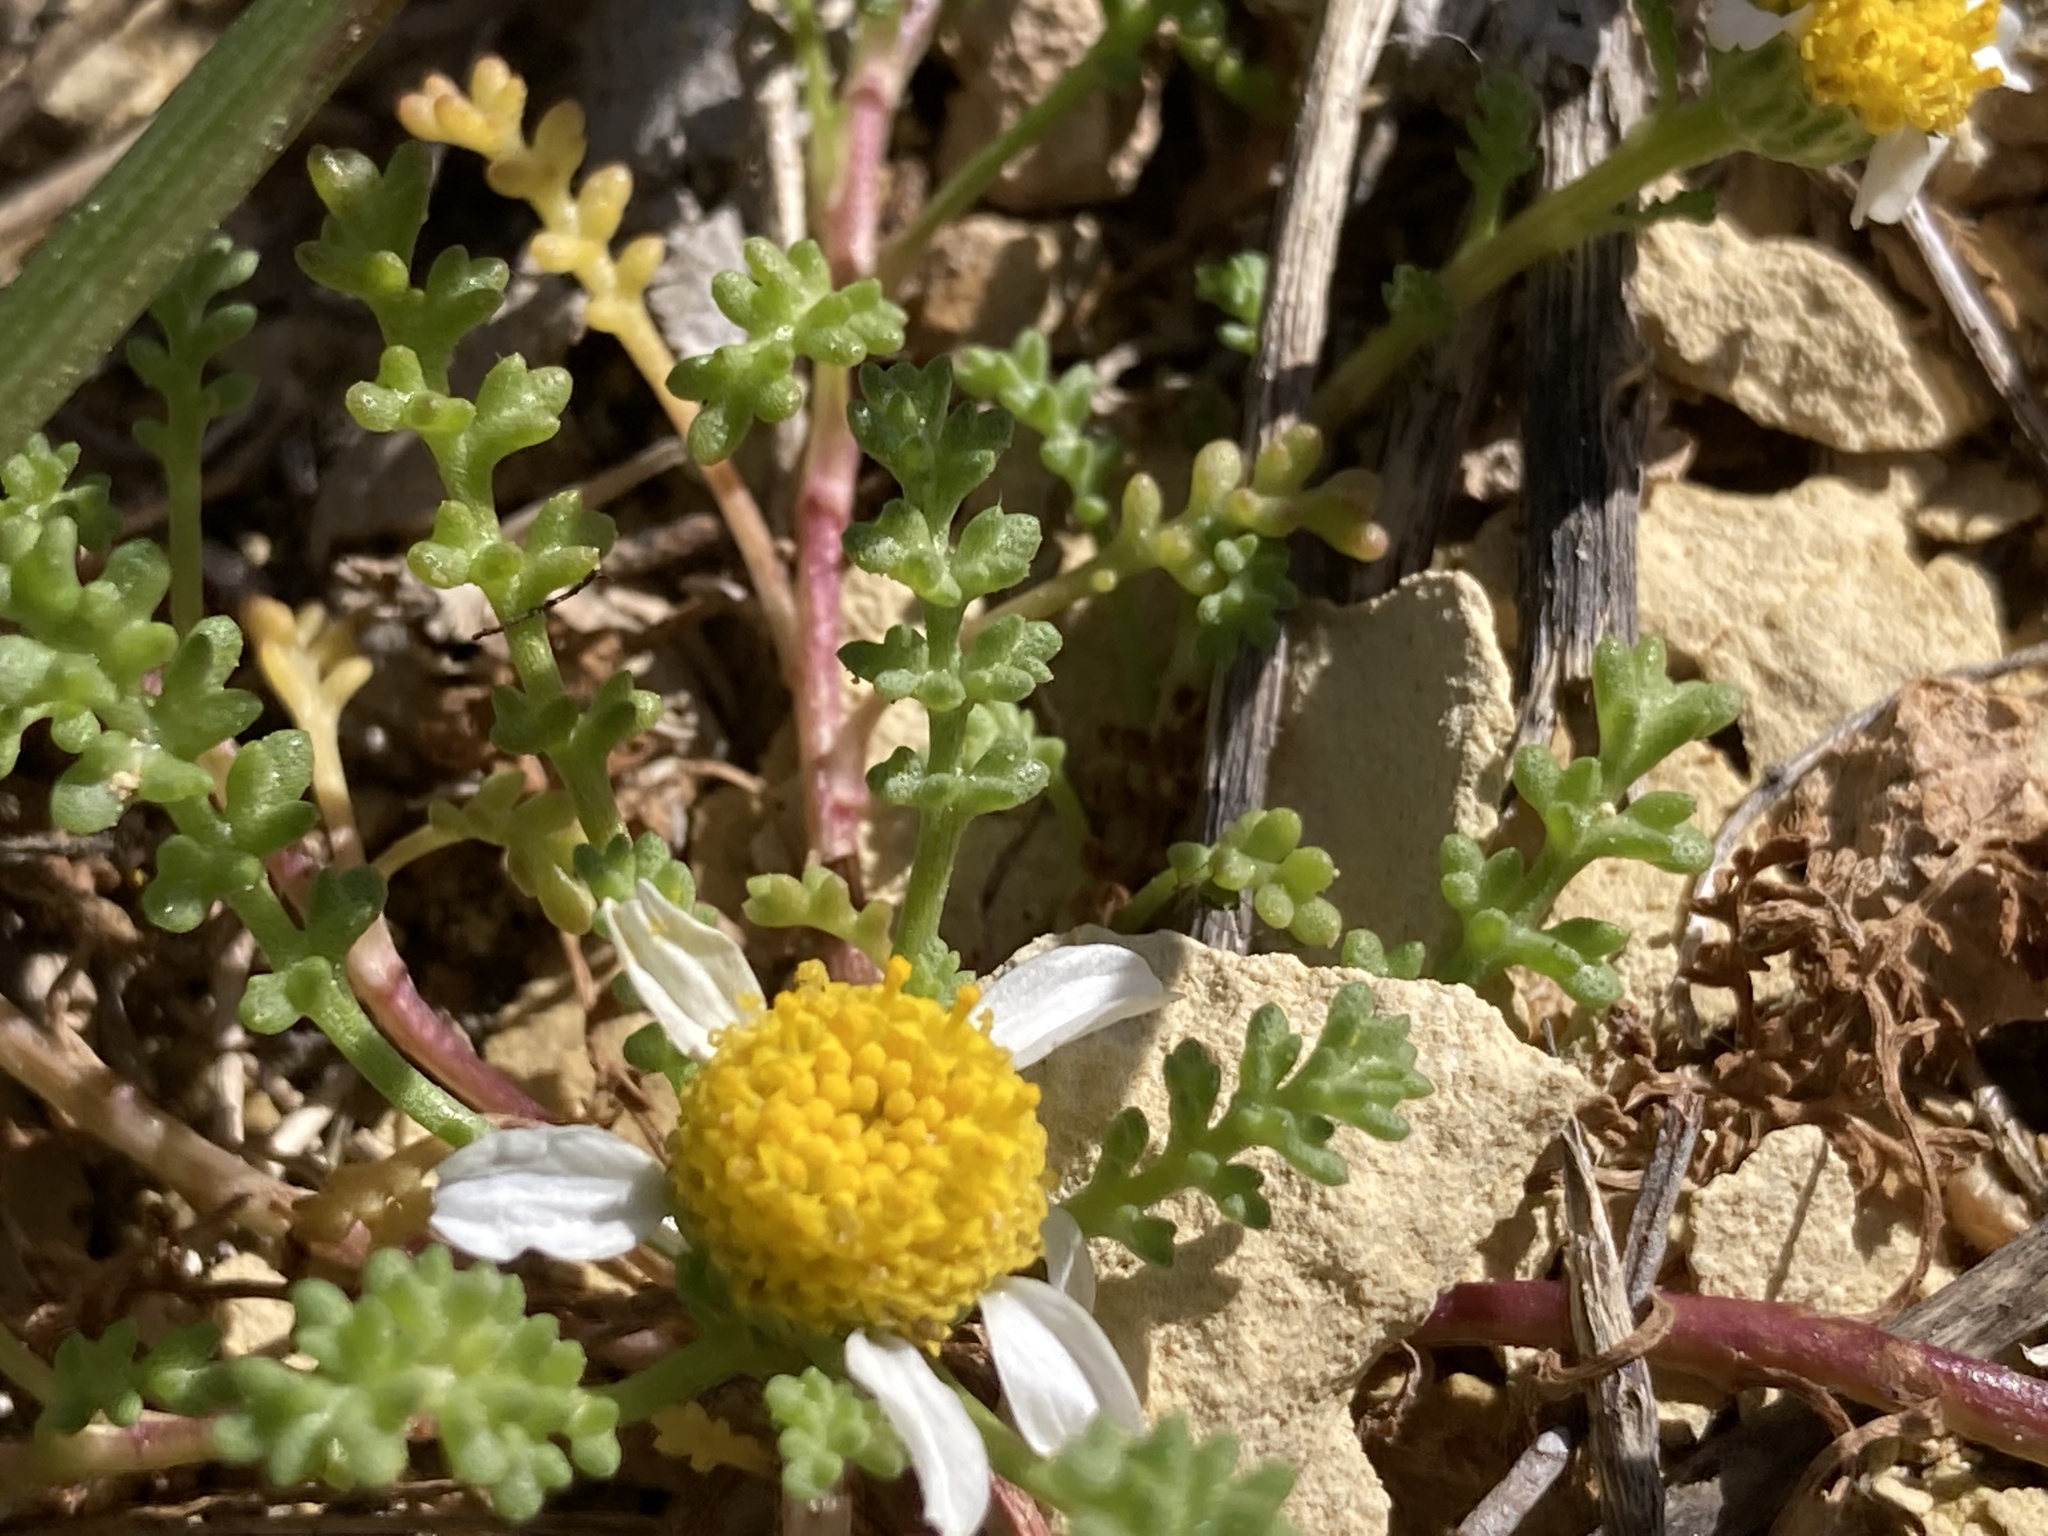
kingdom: Plantae
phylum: Tracheophyta
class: Magnoliopsida
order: Asterales
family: Asteraceae
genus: Anthemis
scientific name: Anthemis secundiramea
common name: Prostrate chamomile
